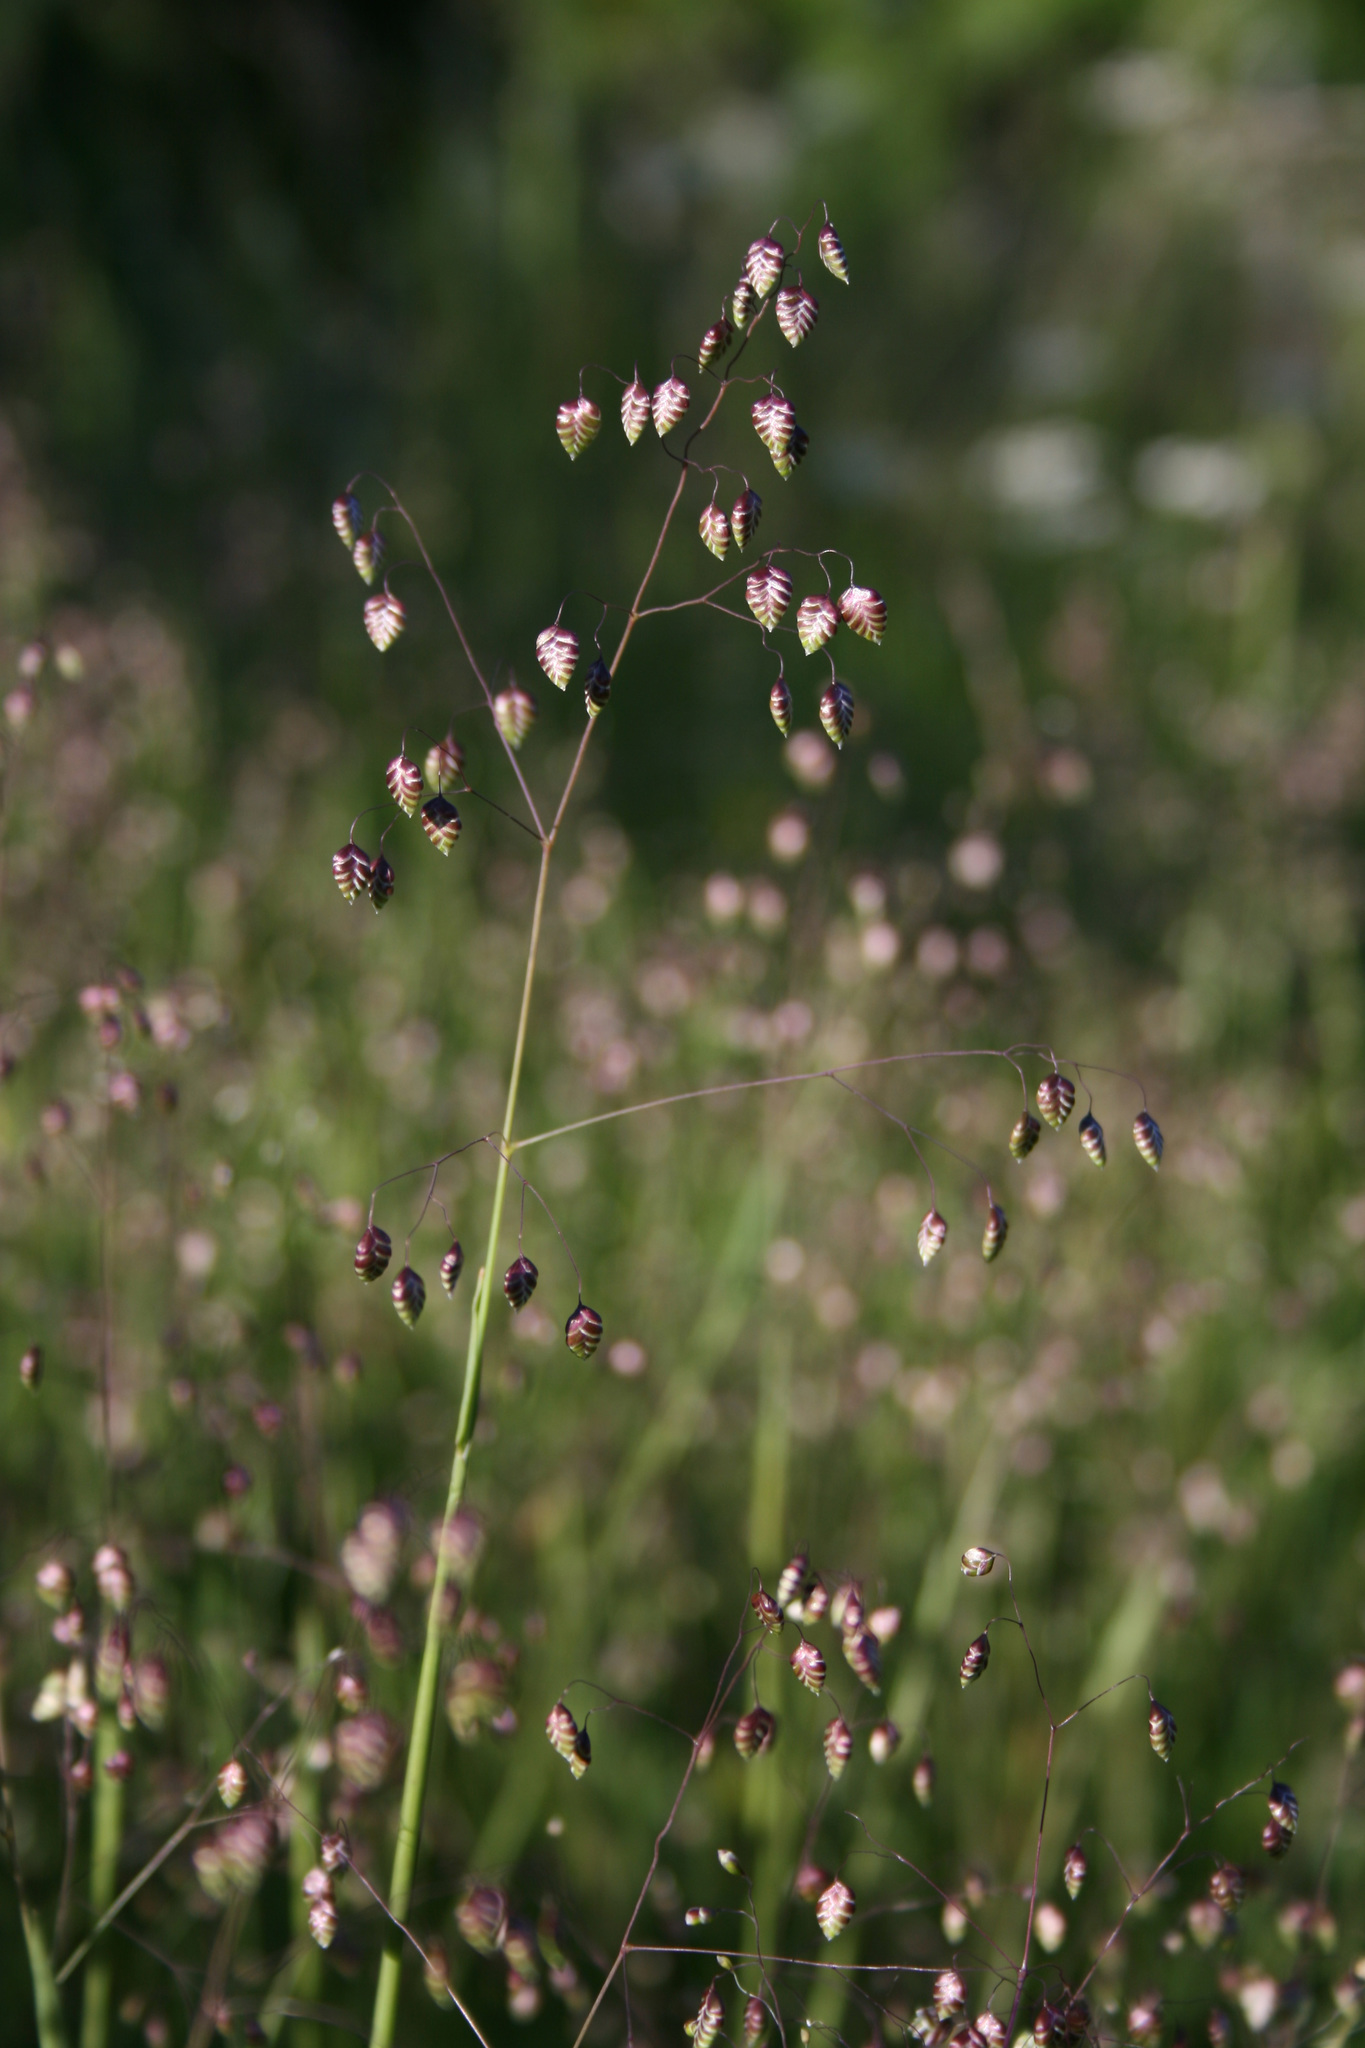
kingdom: Plantae
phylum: Tracheophyta
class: Liliopsida
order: Poales
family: Poaceae
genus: Briza
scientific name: Briza media
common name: Quaking grass
